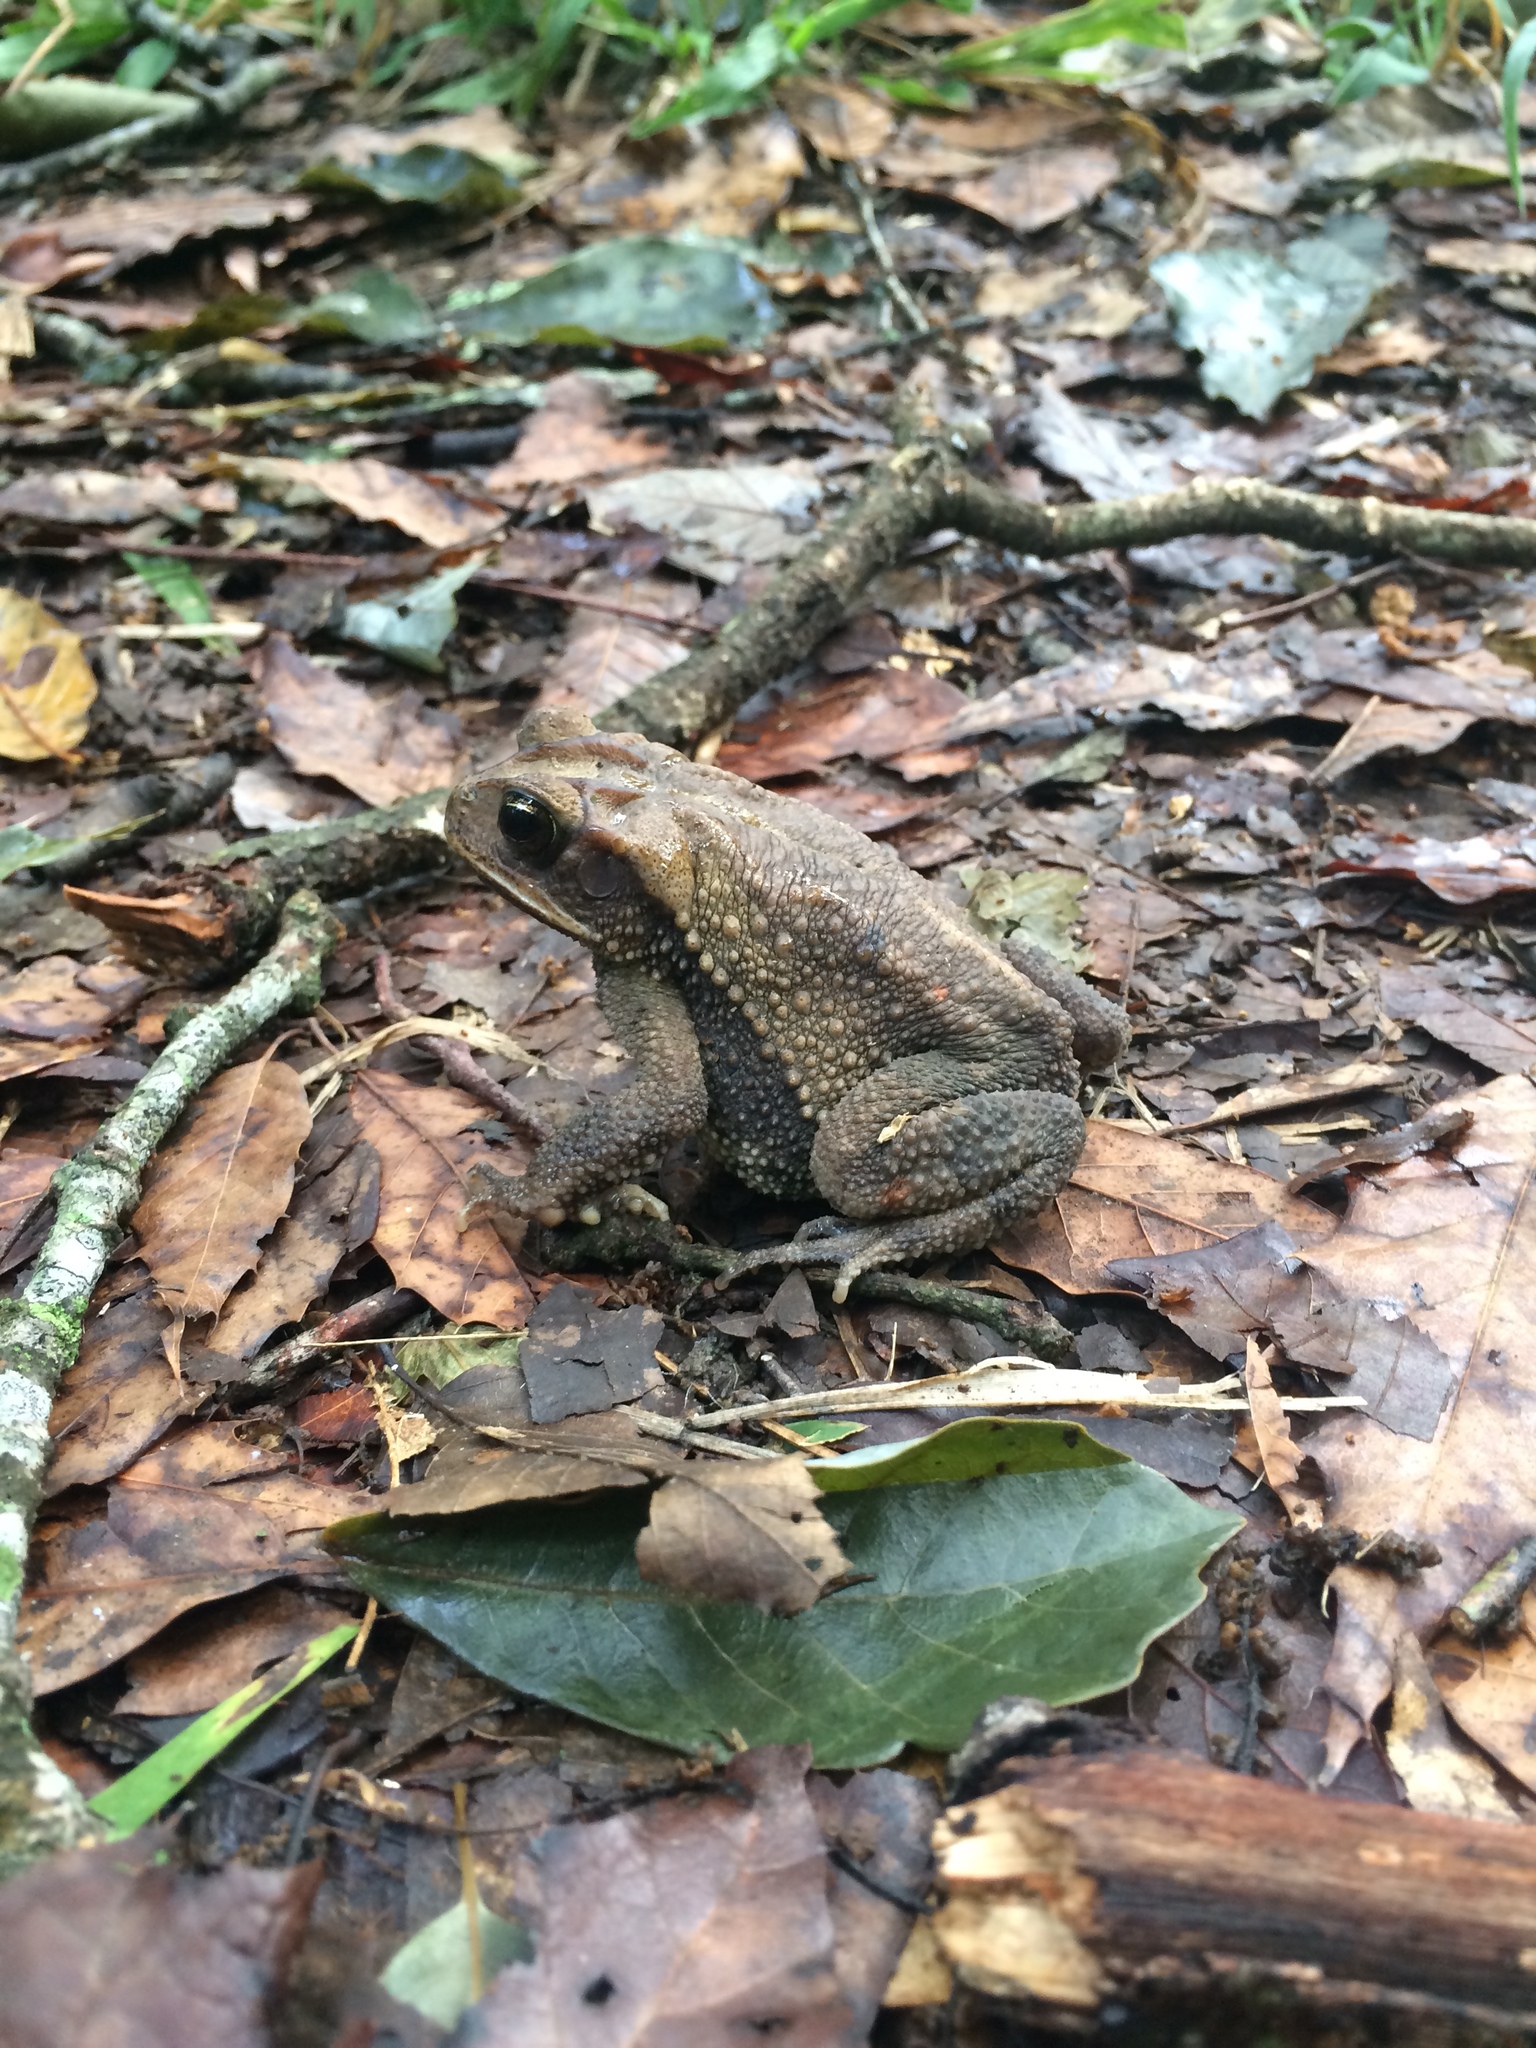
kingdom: Animalia
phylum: Chordata
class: Amphibia
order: Anura
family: Bufonidae
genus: Incilius
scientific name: Incilius valliceps
